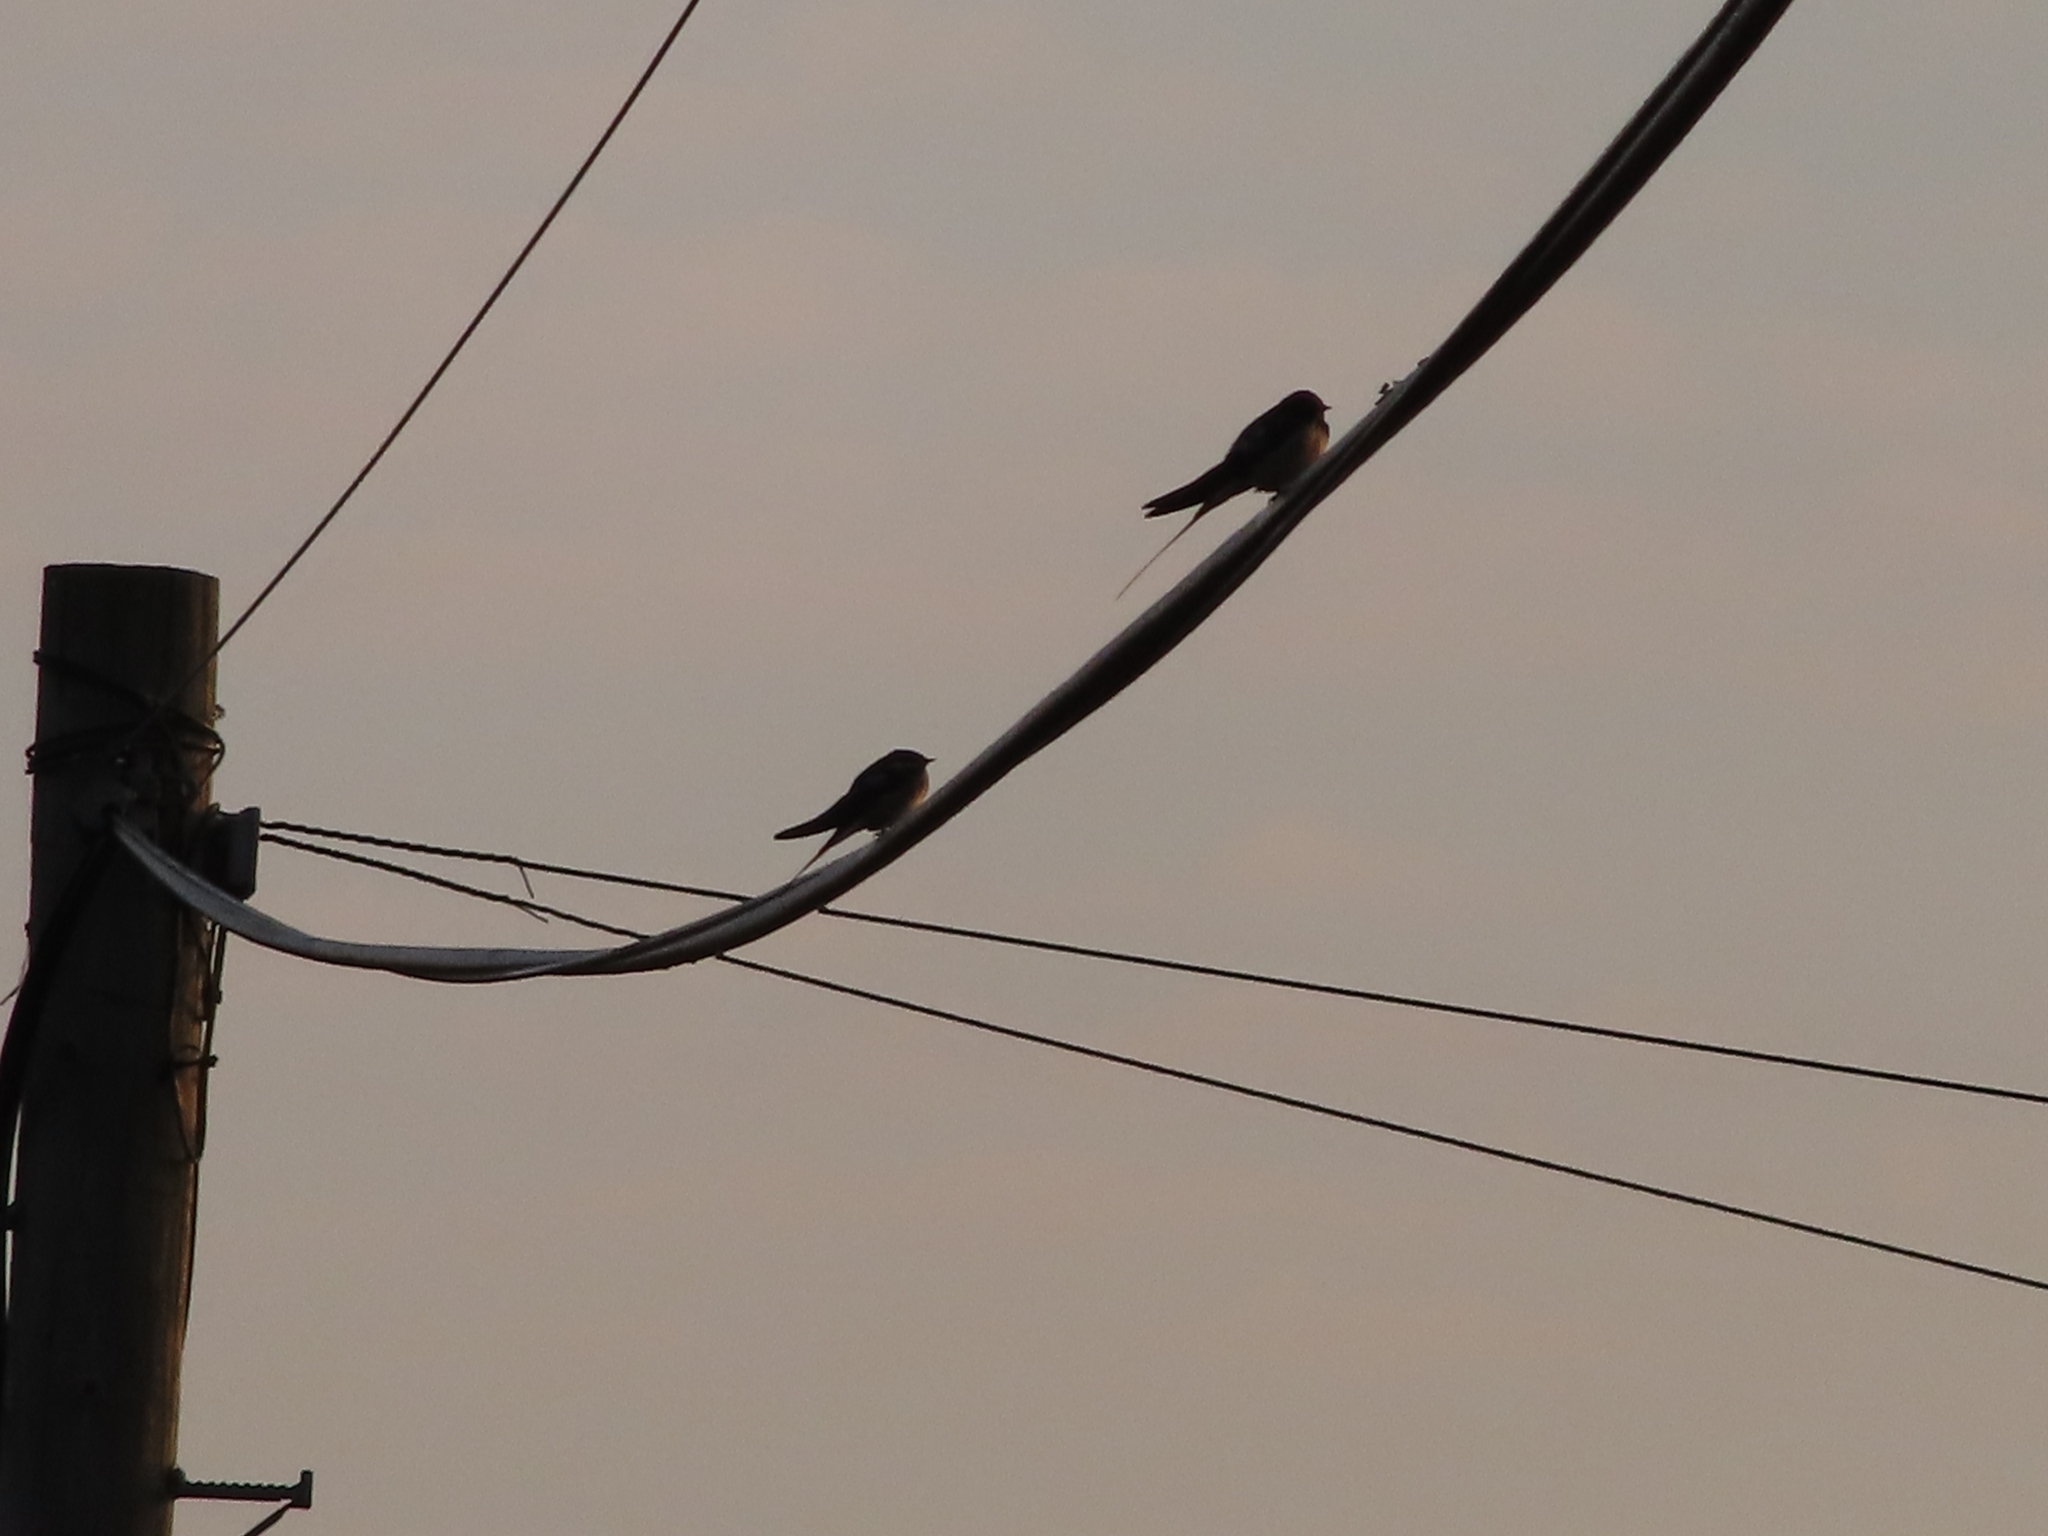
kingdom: Animalia
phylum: Chordata
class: Aves
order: Passeriformes
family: Hirundinidae
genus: Hirundo
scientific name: Hirundo rustica
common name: Barn swallow
